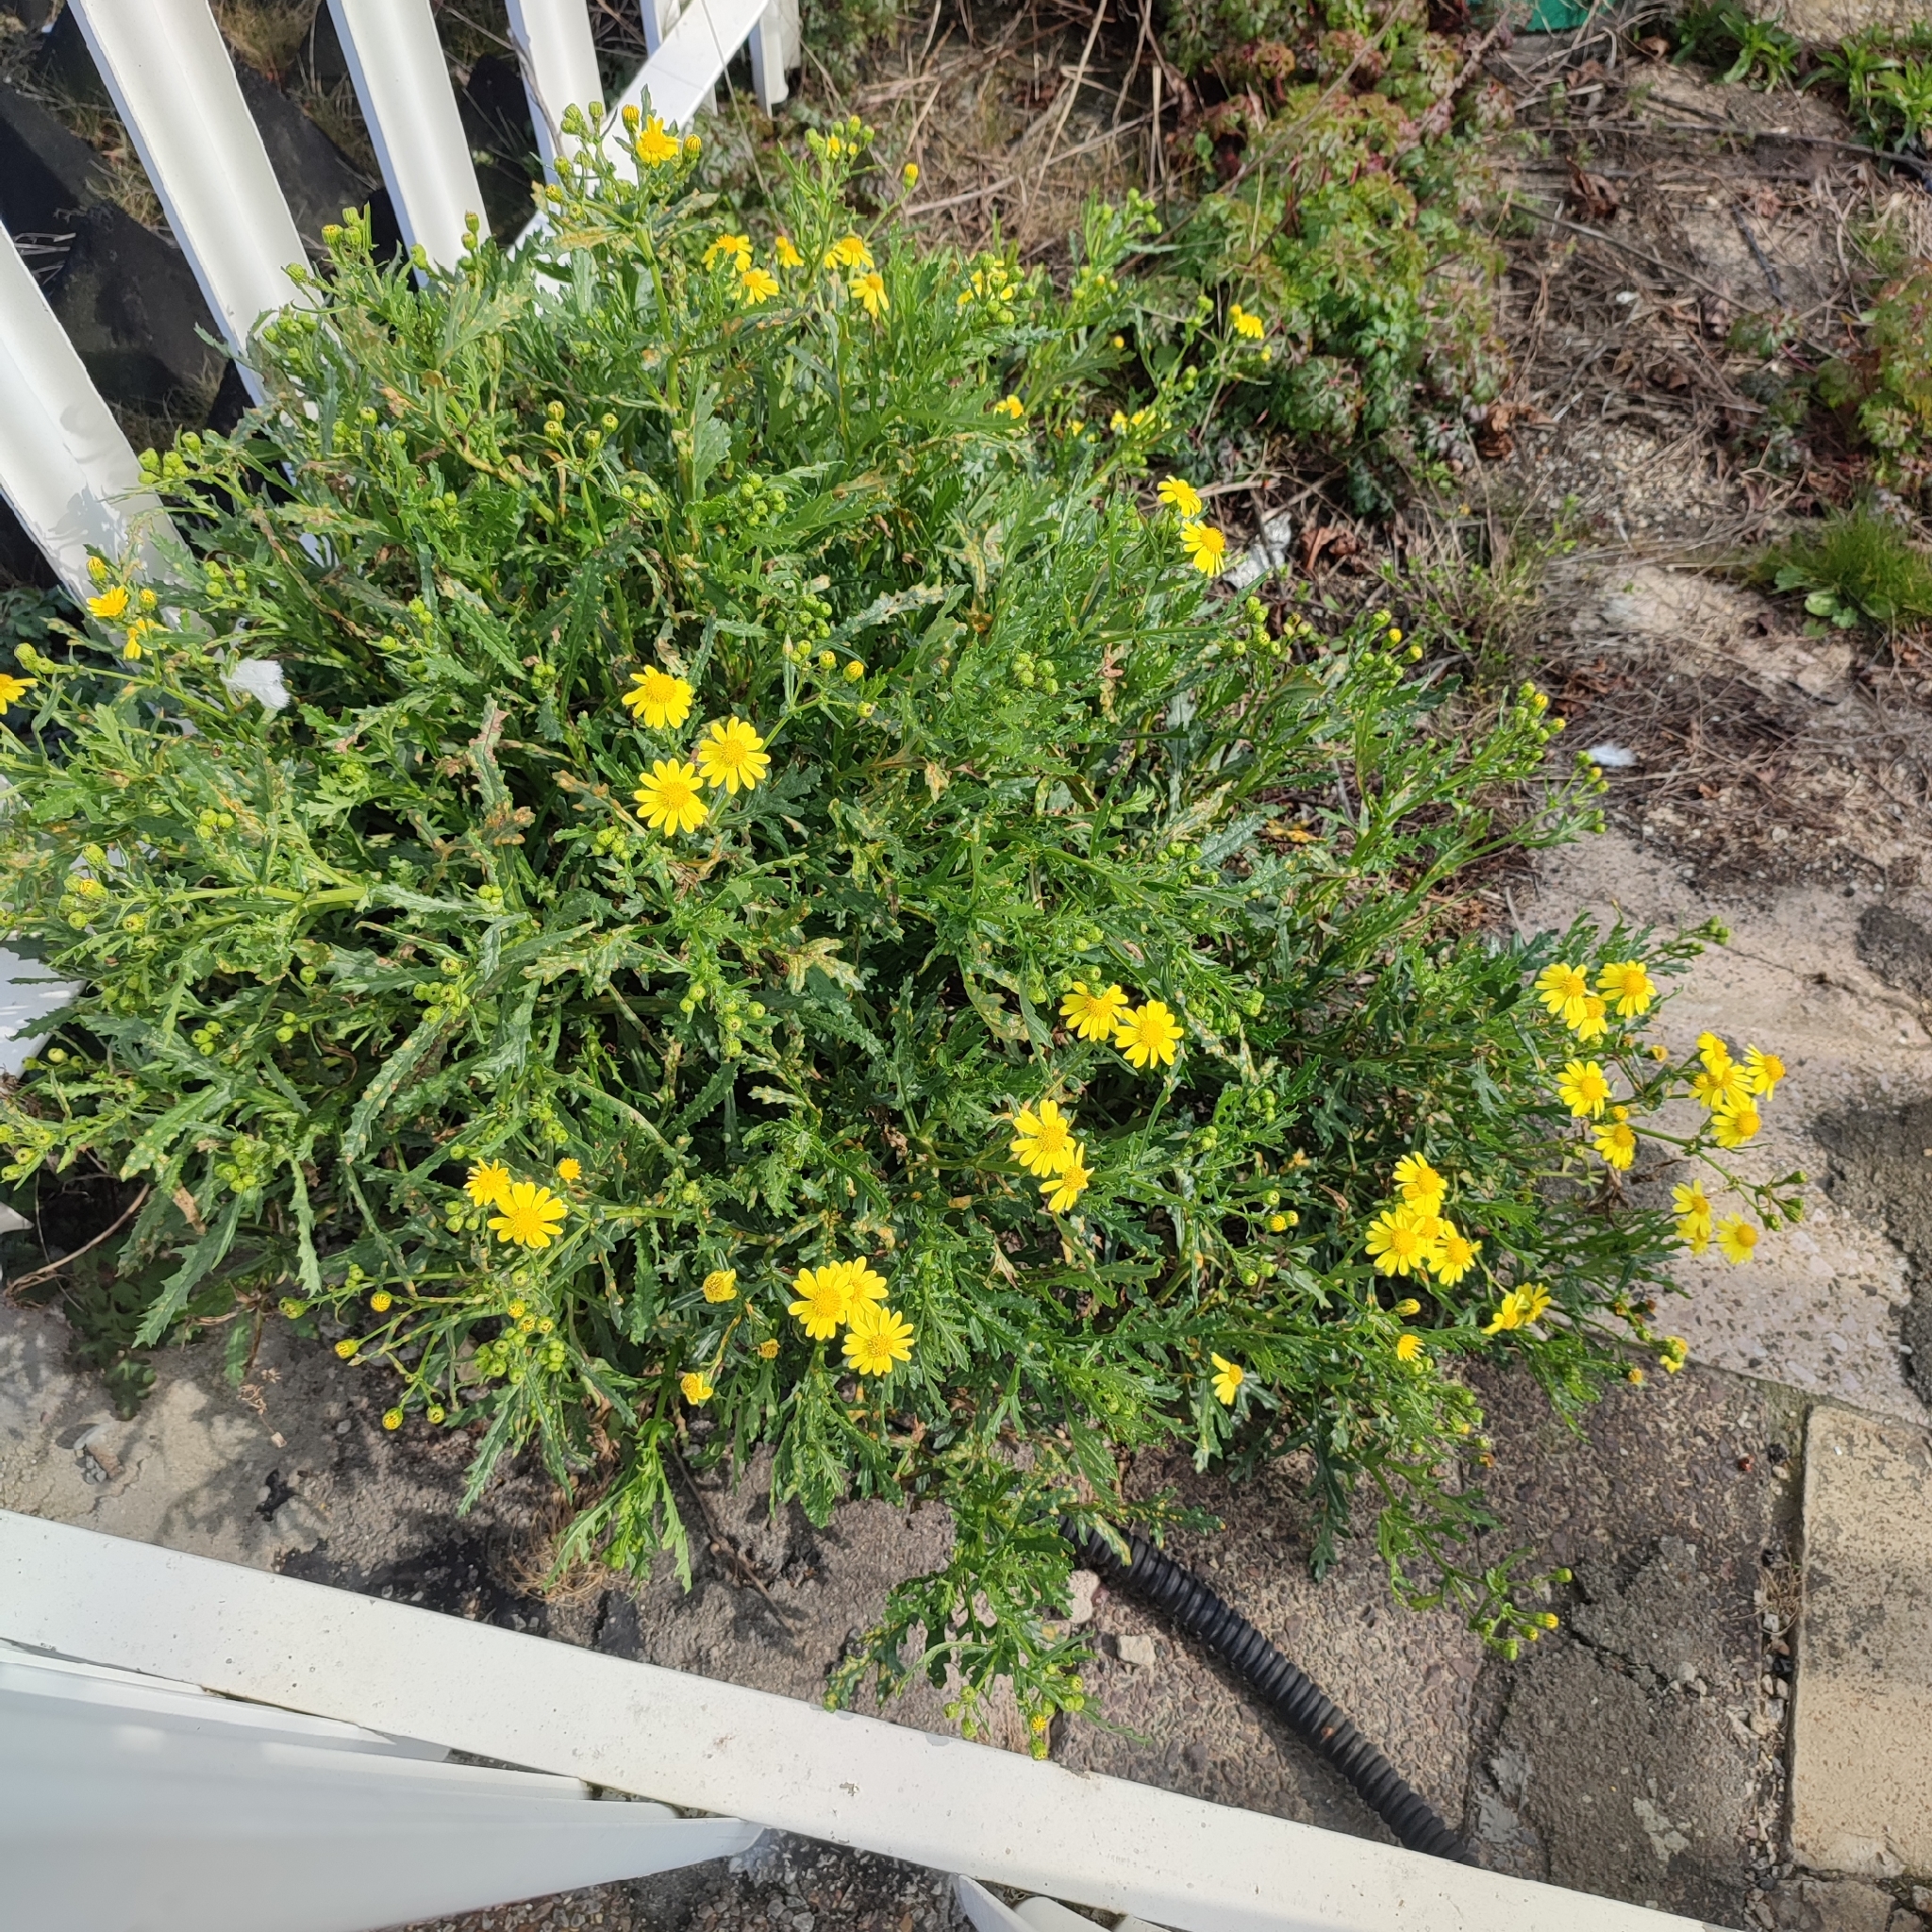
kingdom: Plantae
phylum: Tracheophyta
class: Magnoliopsida
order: Asterales
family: Asteraceae
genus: Senecio
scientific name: Senecio squalidus
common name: Oxford ragwort
